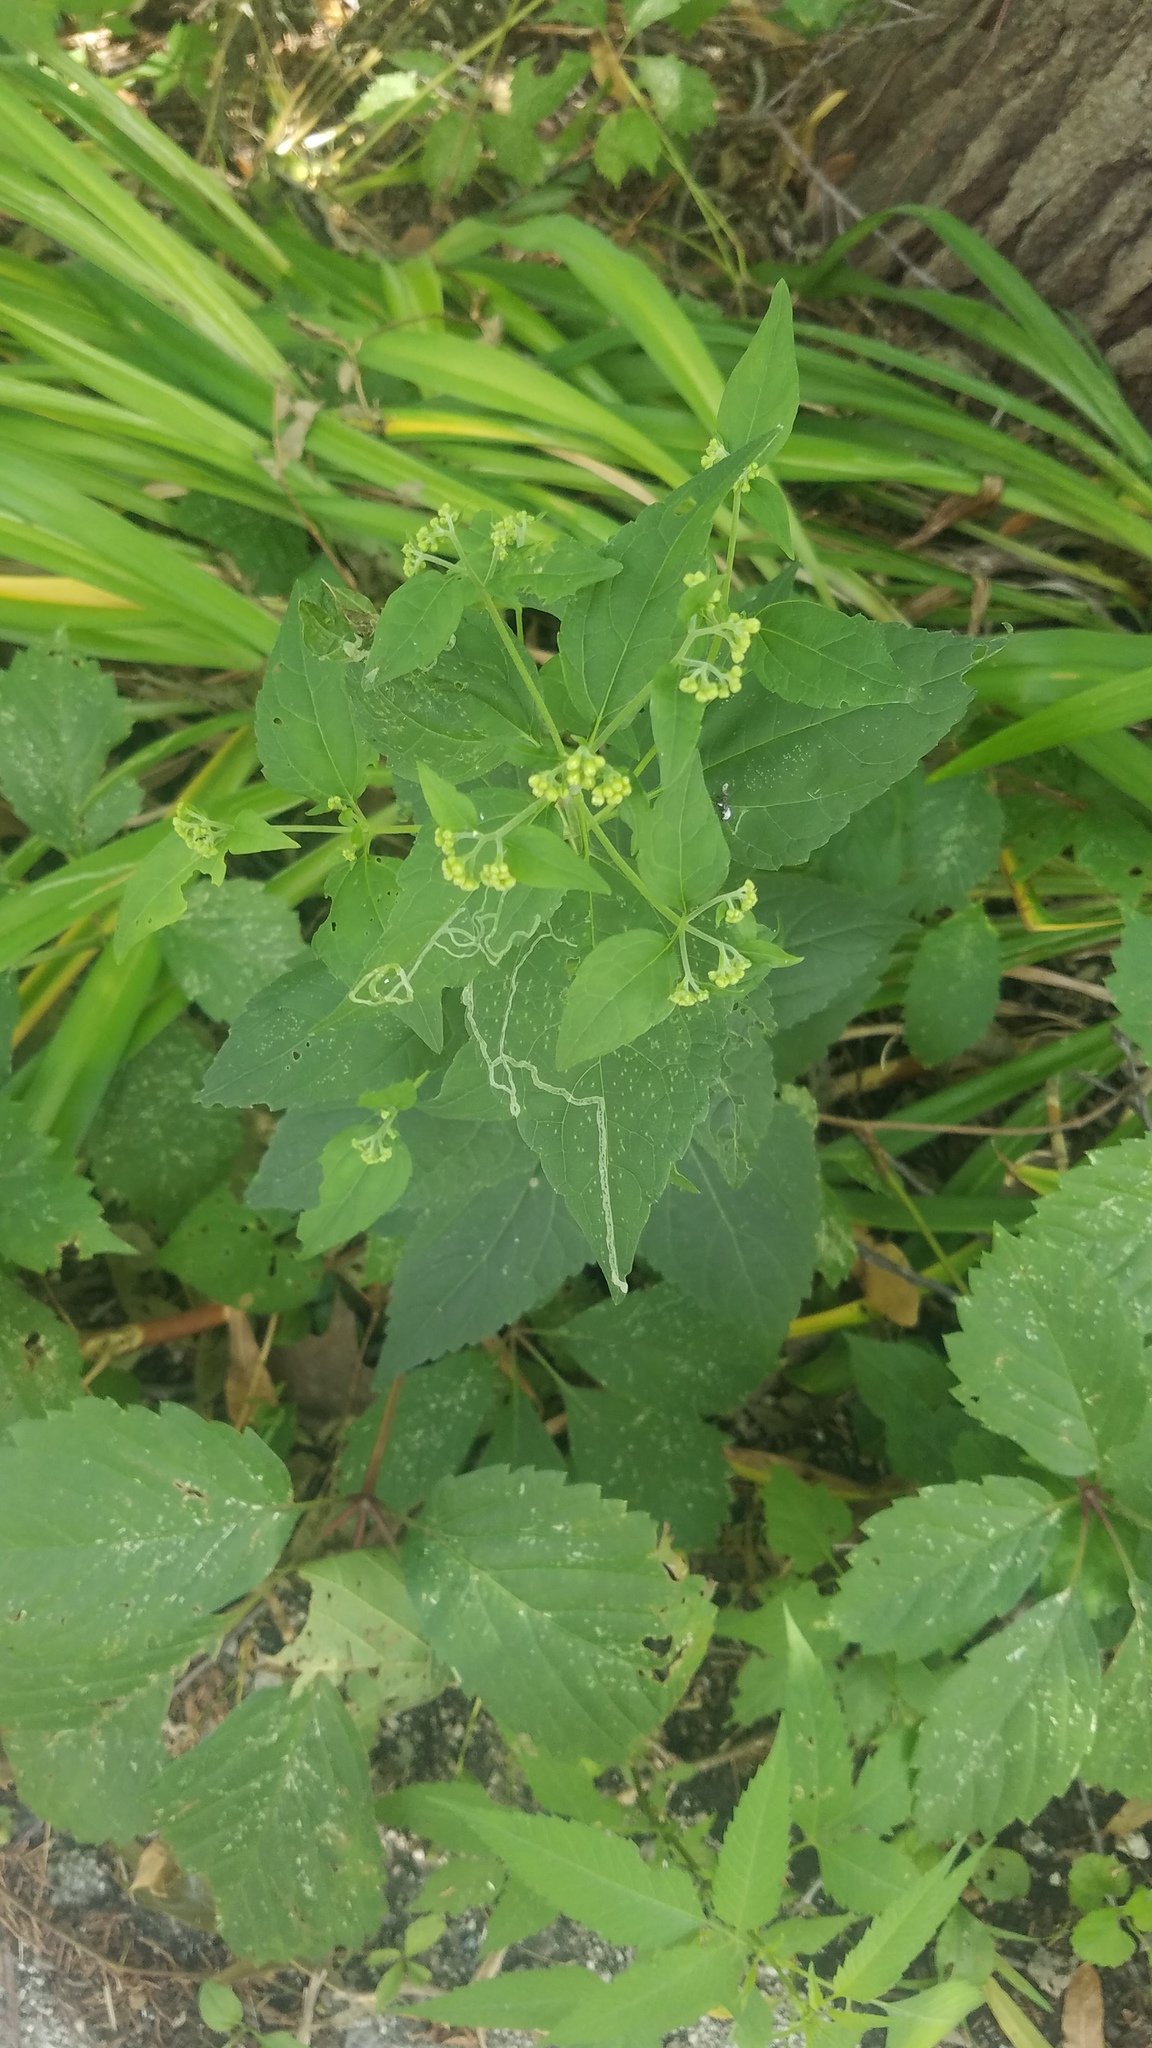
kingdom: Plantae
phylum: Tracheophyta
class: Magnoliopsida
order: Asterales
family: Asteraceae
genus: Ageratina
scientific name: Ageratina altissima
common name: White snakeroot
